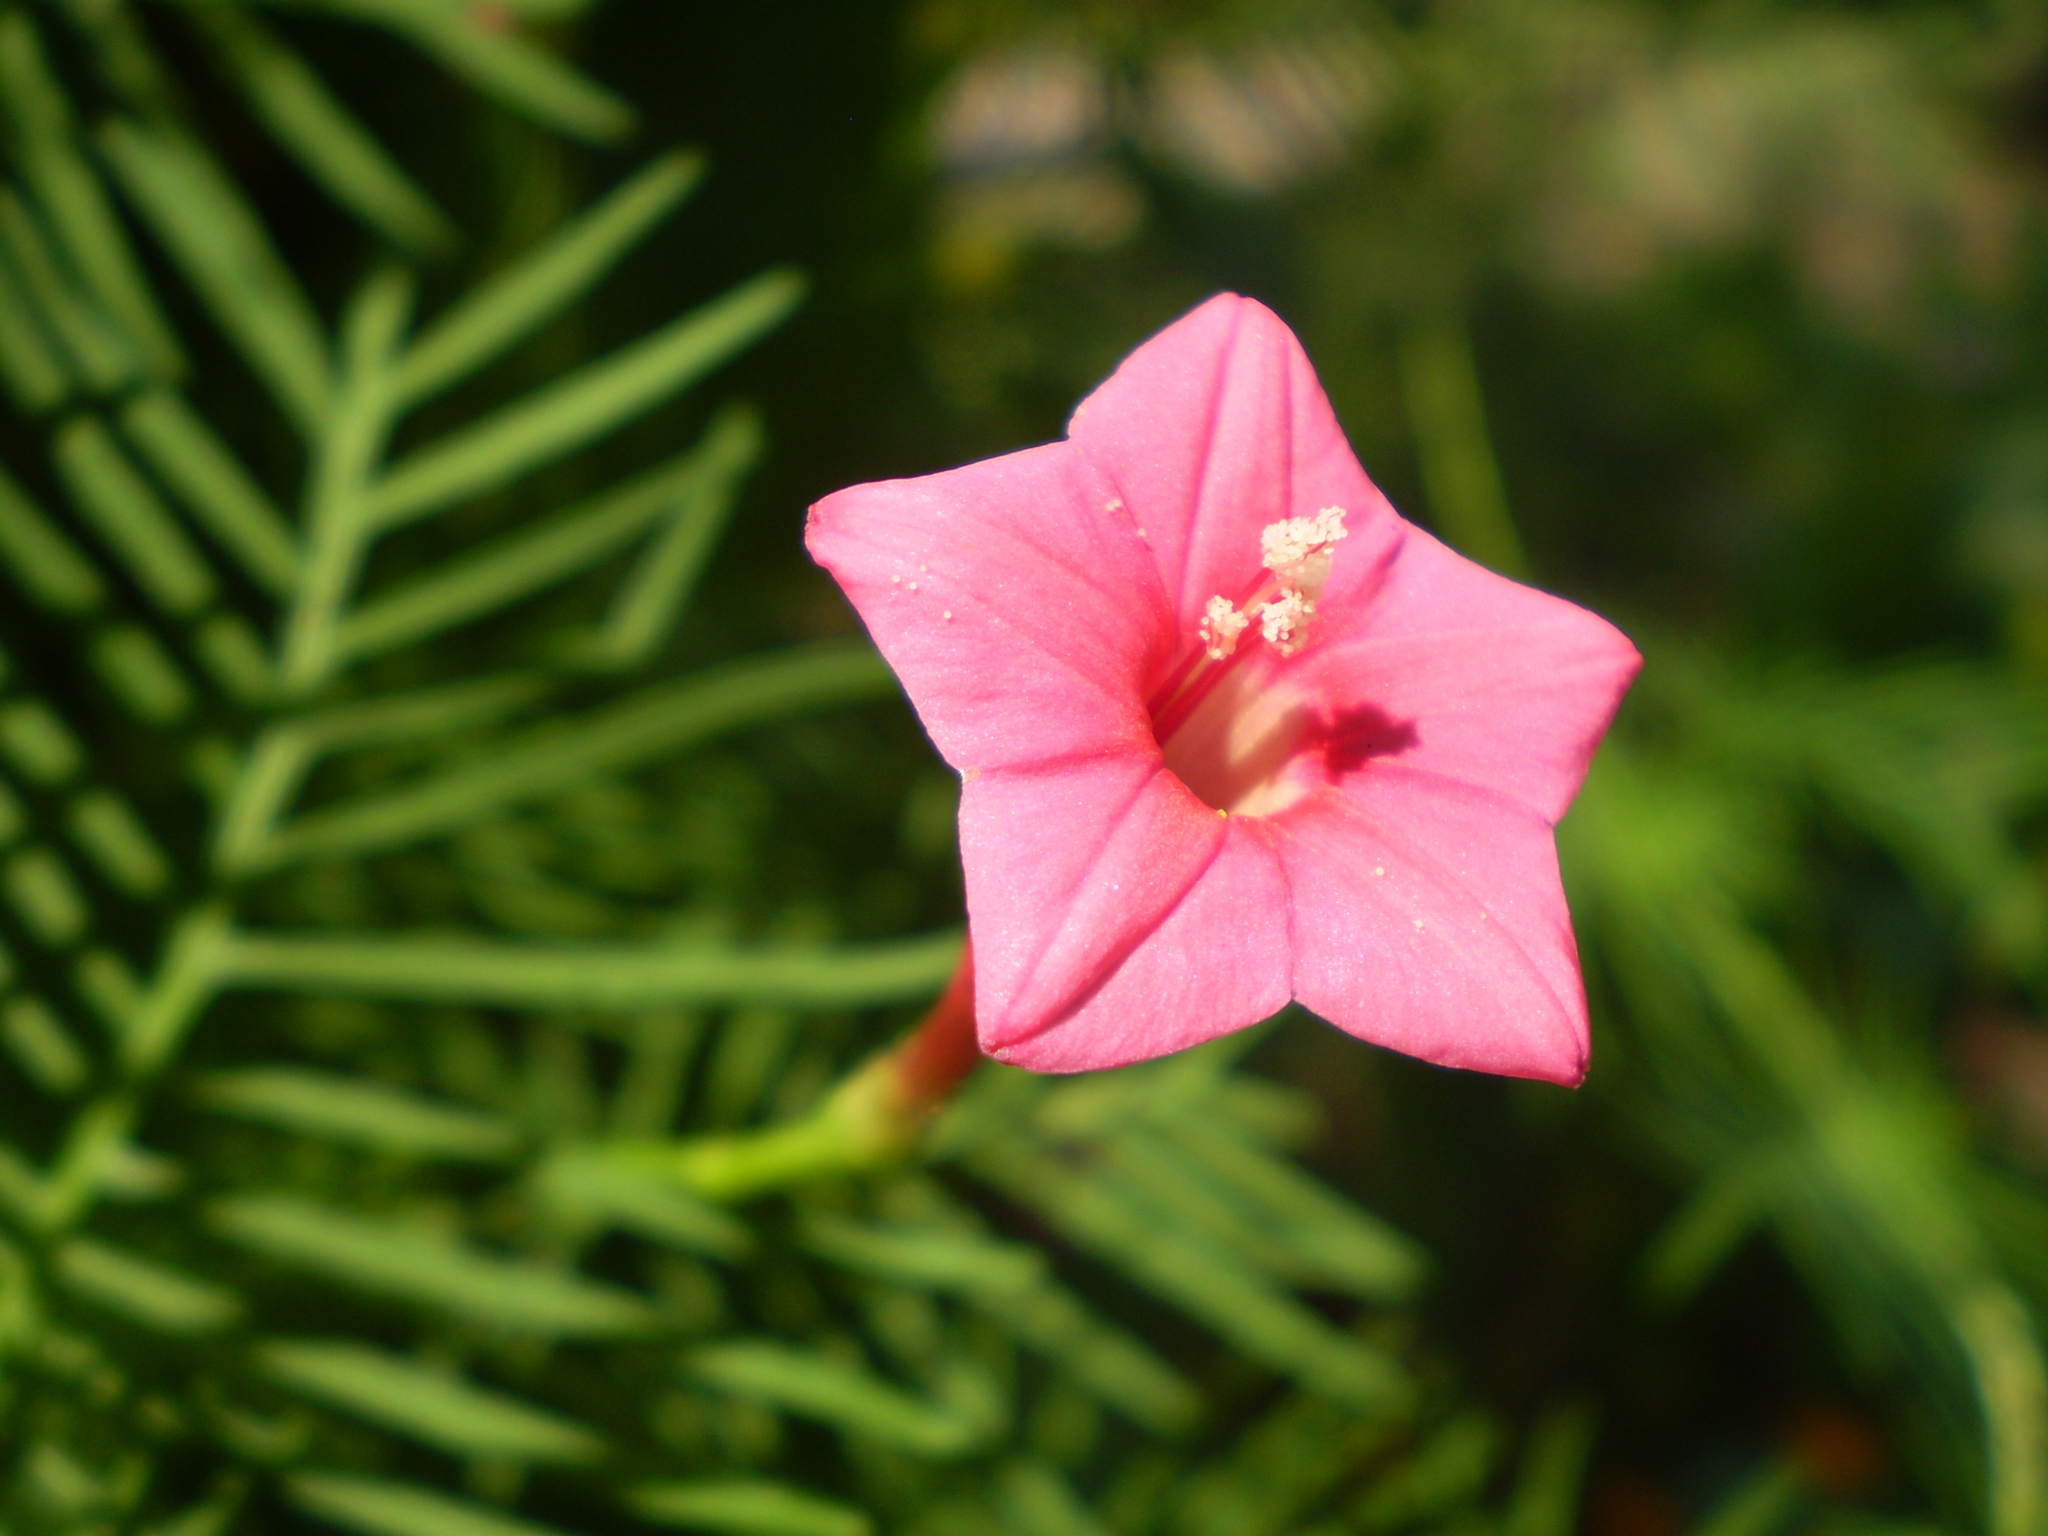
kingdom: Plantae
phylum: Tracheophyta
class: Magnoliopsida
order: Solanales
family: Convolvulaceae
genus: Ipomoea
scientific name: Ipomoea quamoclit
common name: Cypress vine
